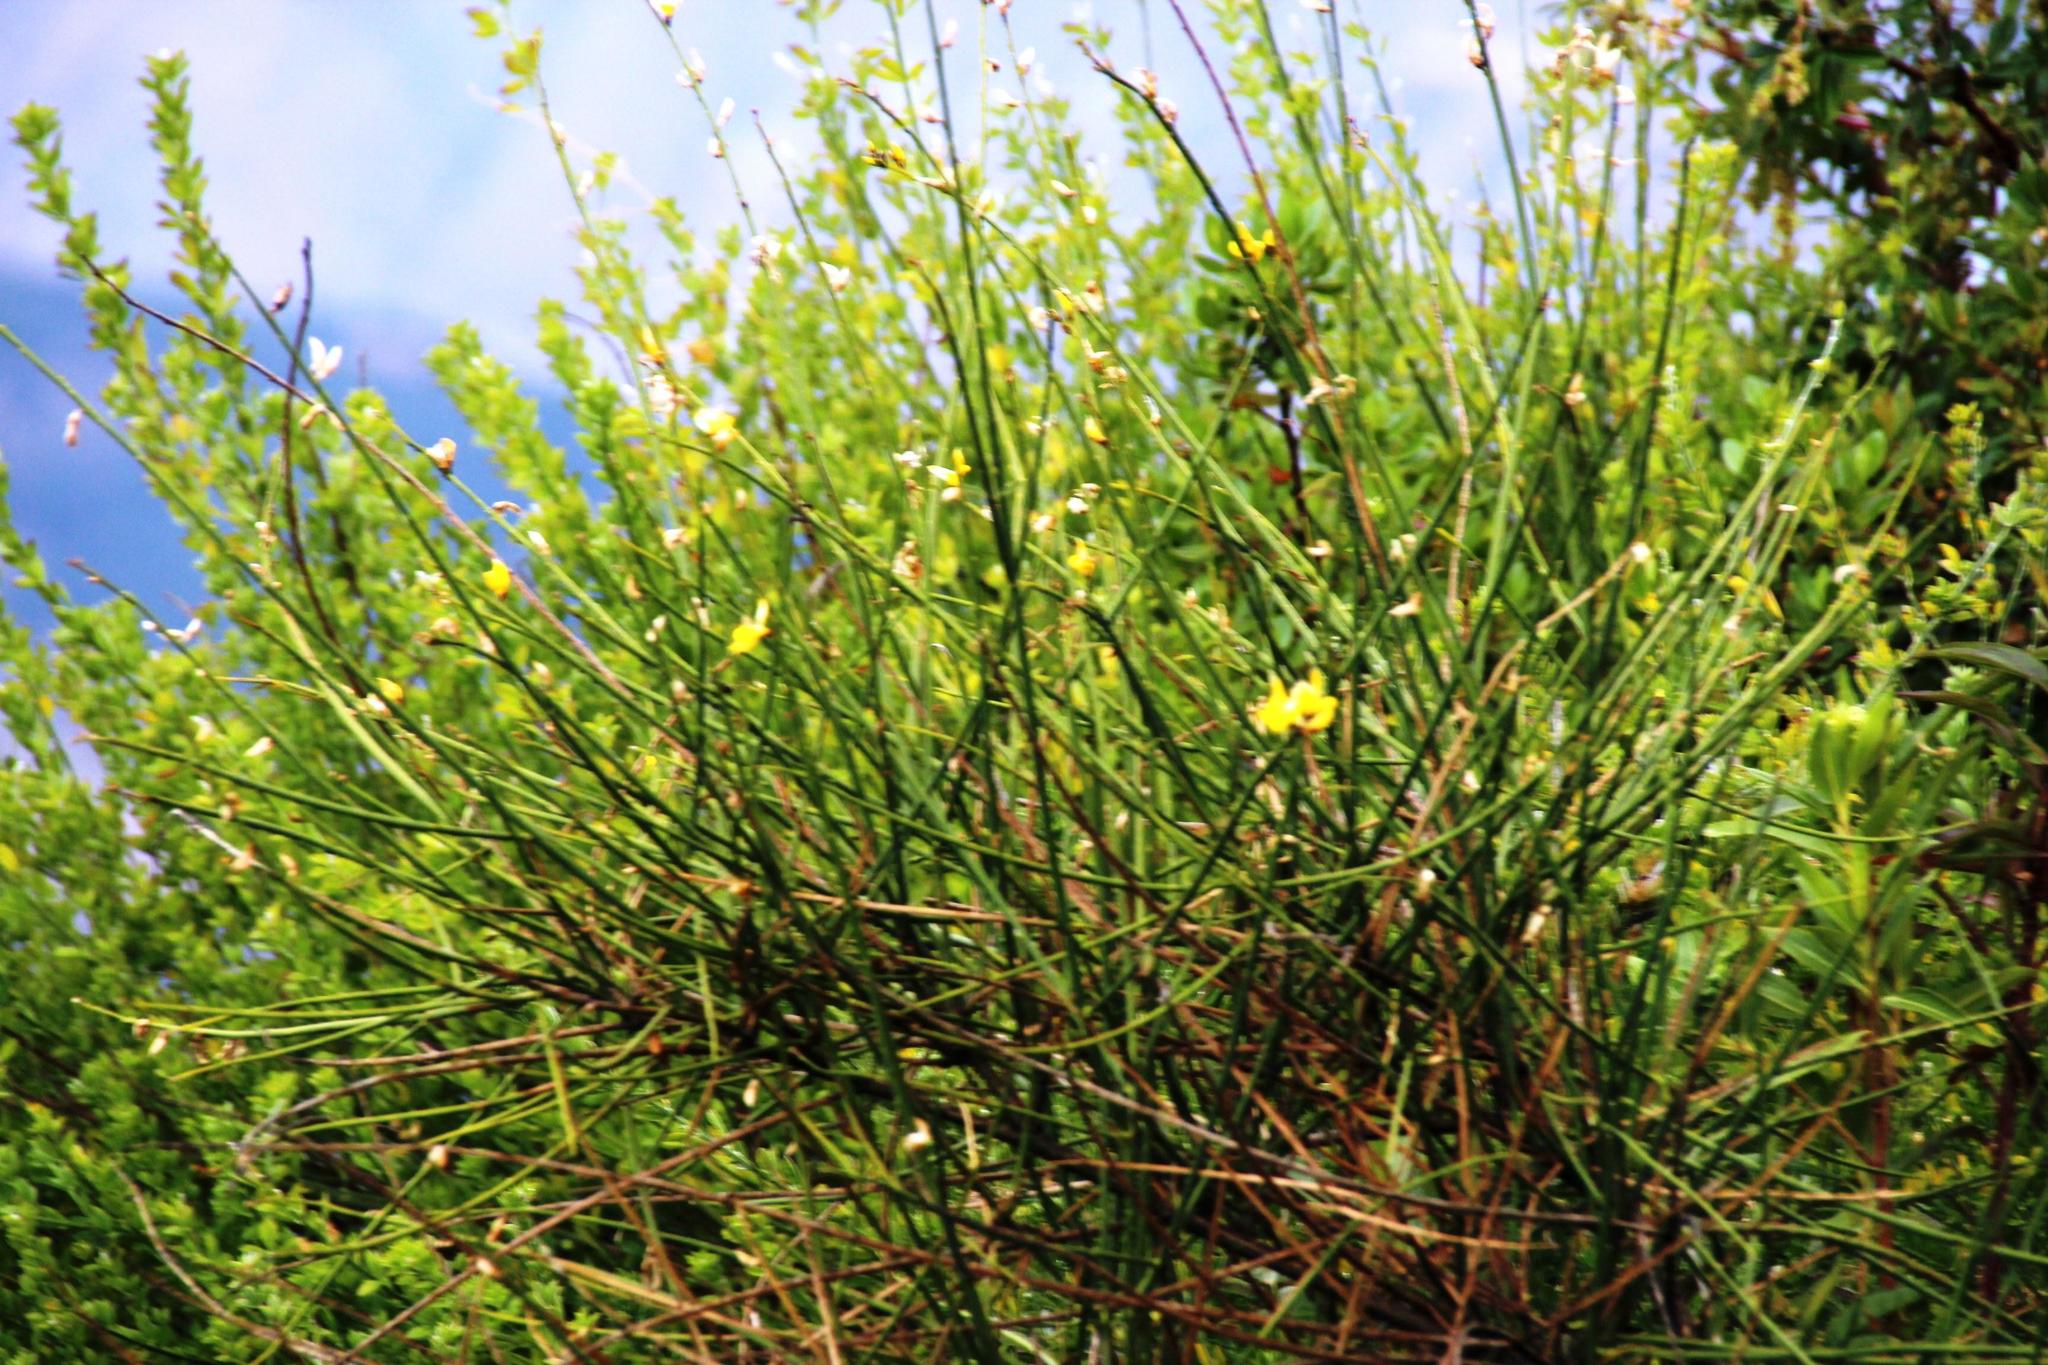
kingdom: Plantae
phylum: Tracheophyta
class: Magnoliopsida
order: Fabales
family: Fabaceae
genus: Spartium
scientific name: Spartium junceum
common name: Spanish broom
